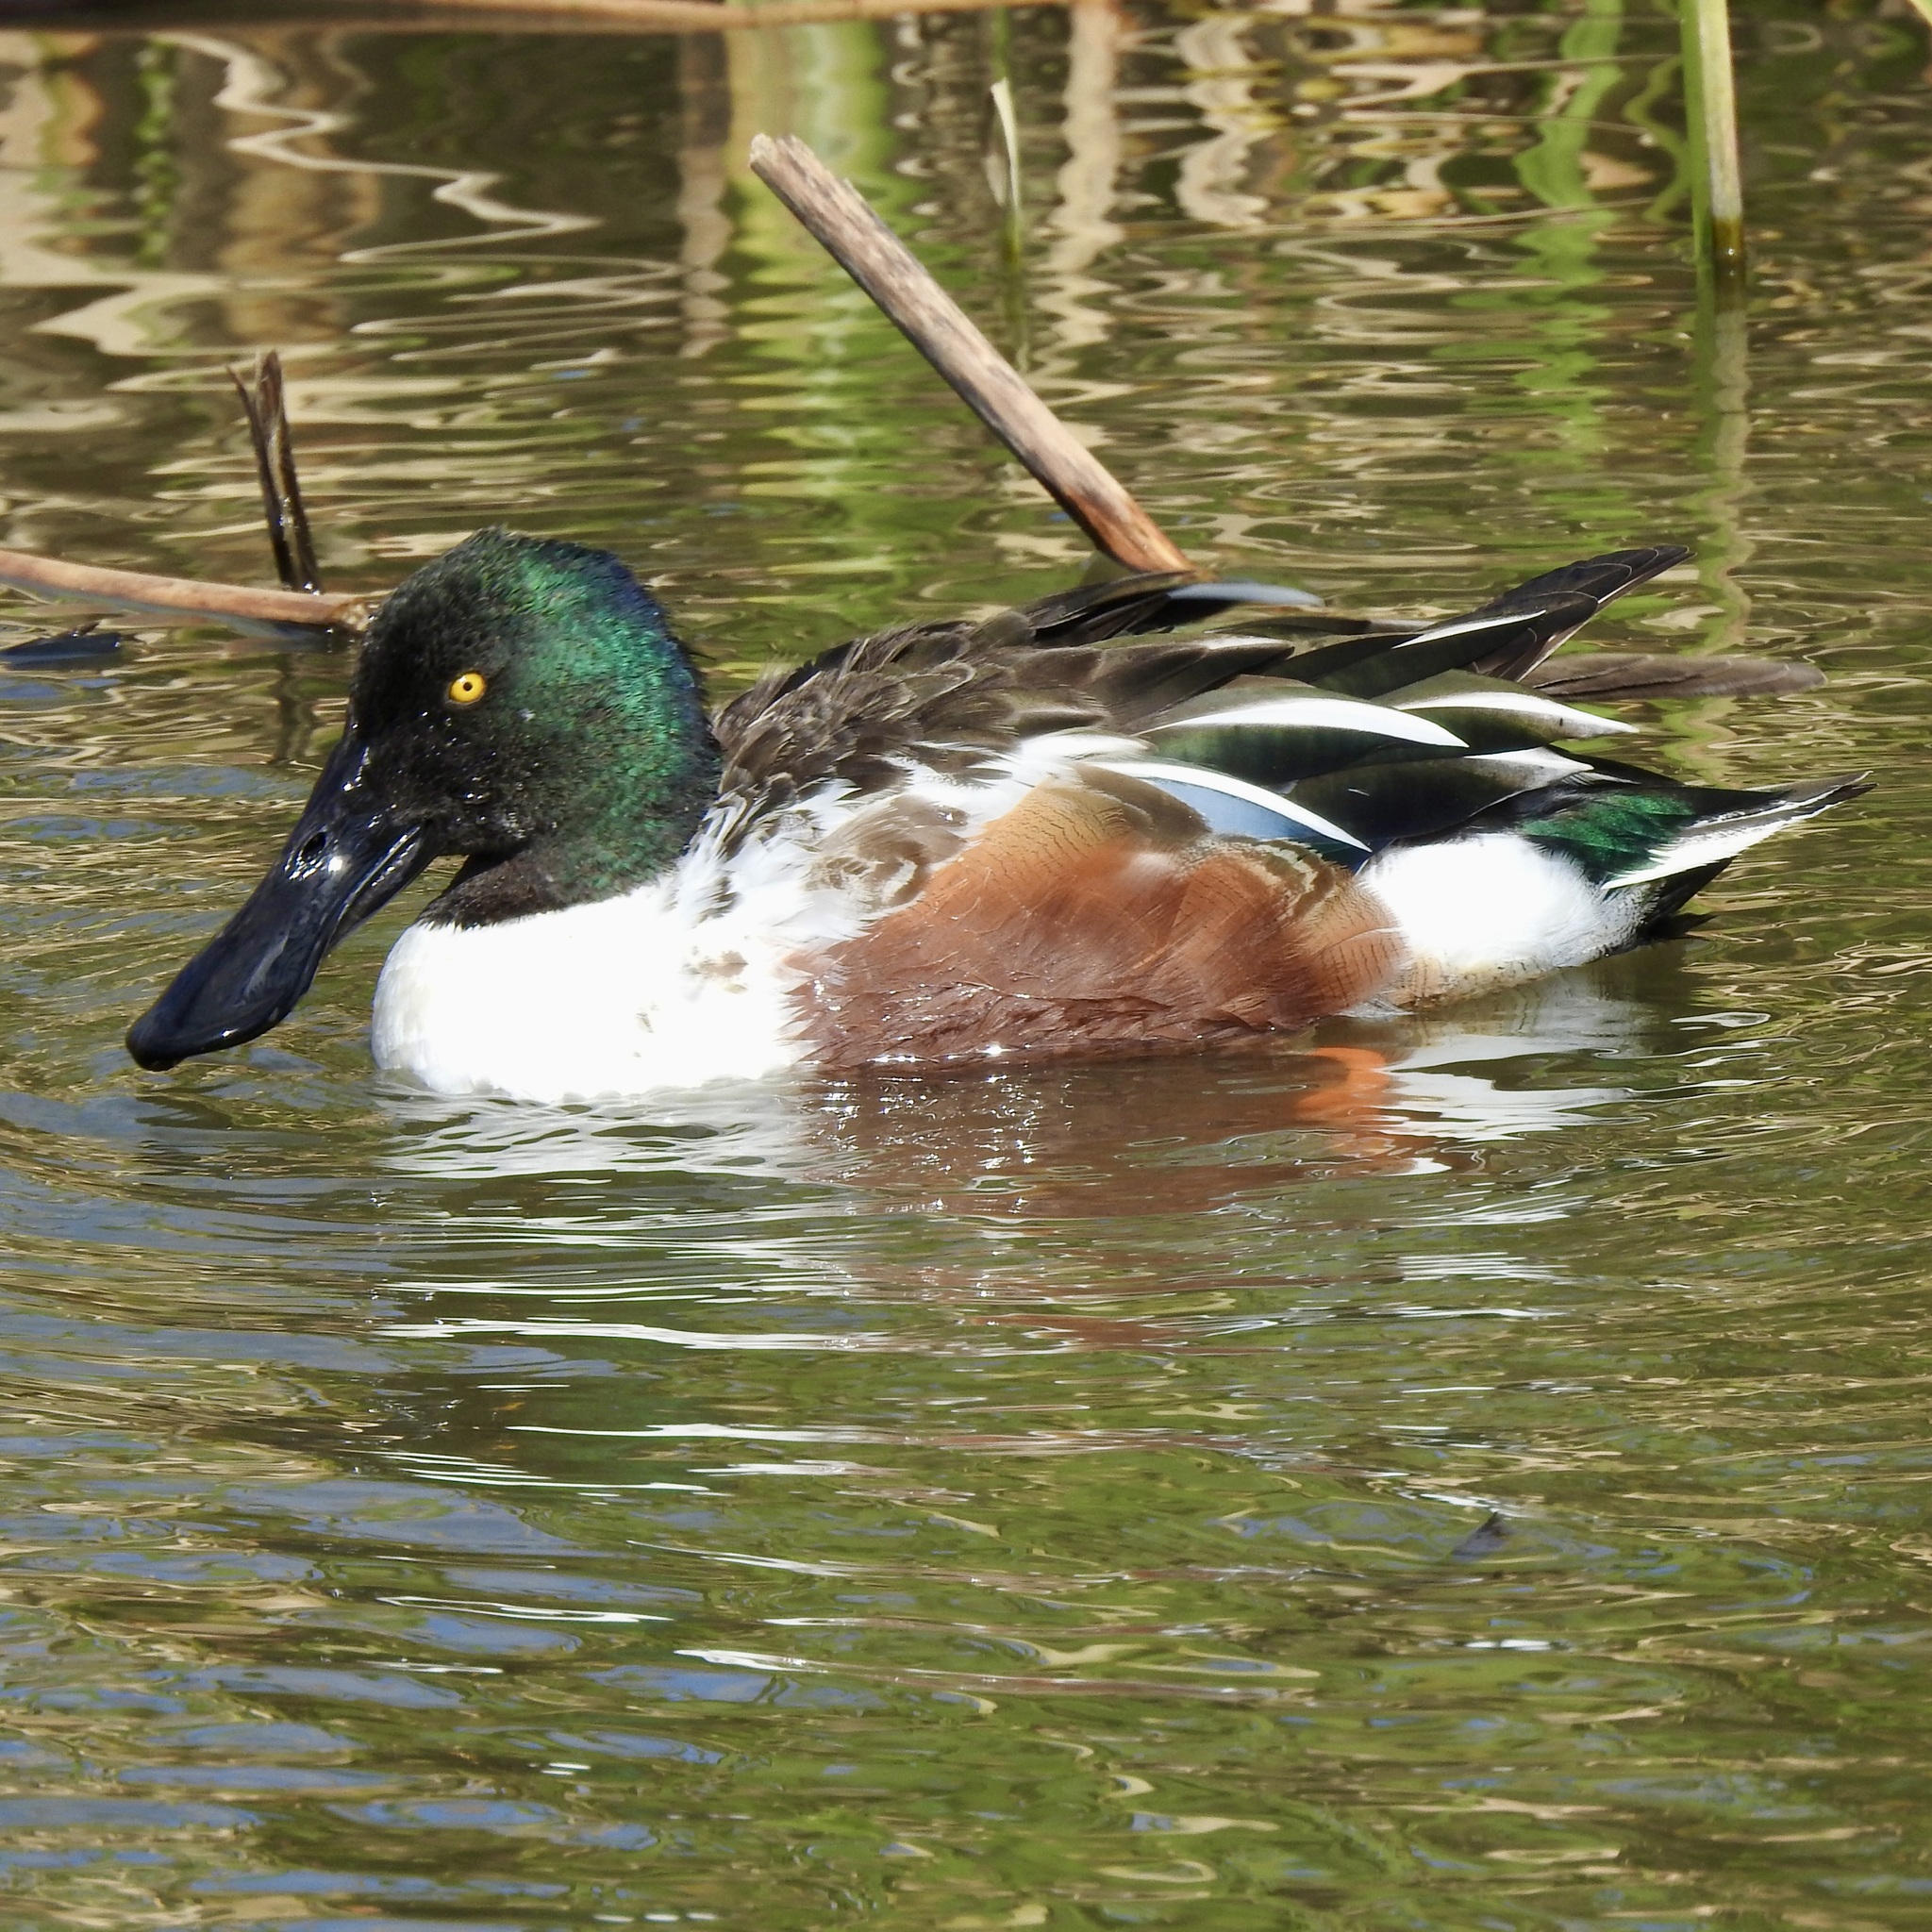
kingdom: Animalia
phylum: Chordata
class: Aves
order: Anseriformes
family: Anatidae
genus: Spatula
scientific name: Spatula clypeata
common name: Northern shoveler
